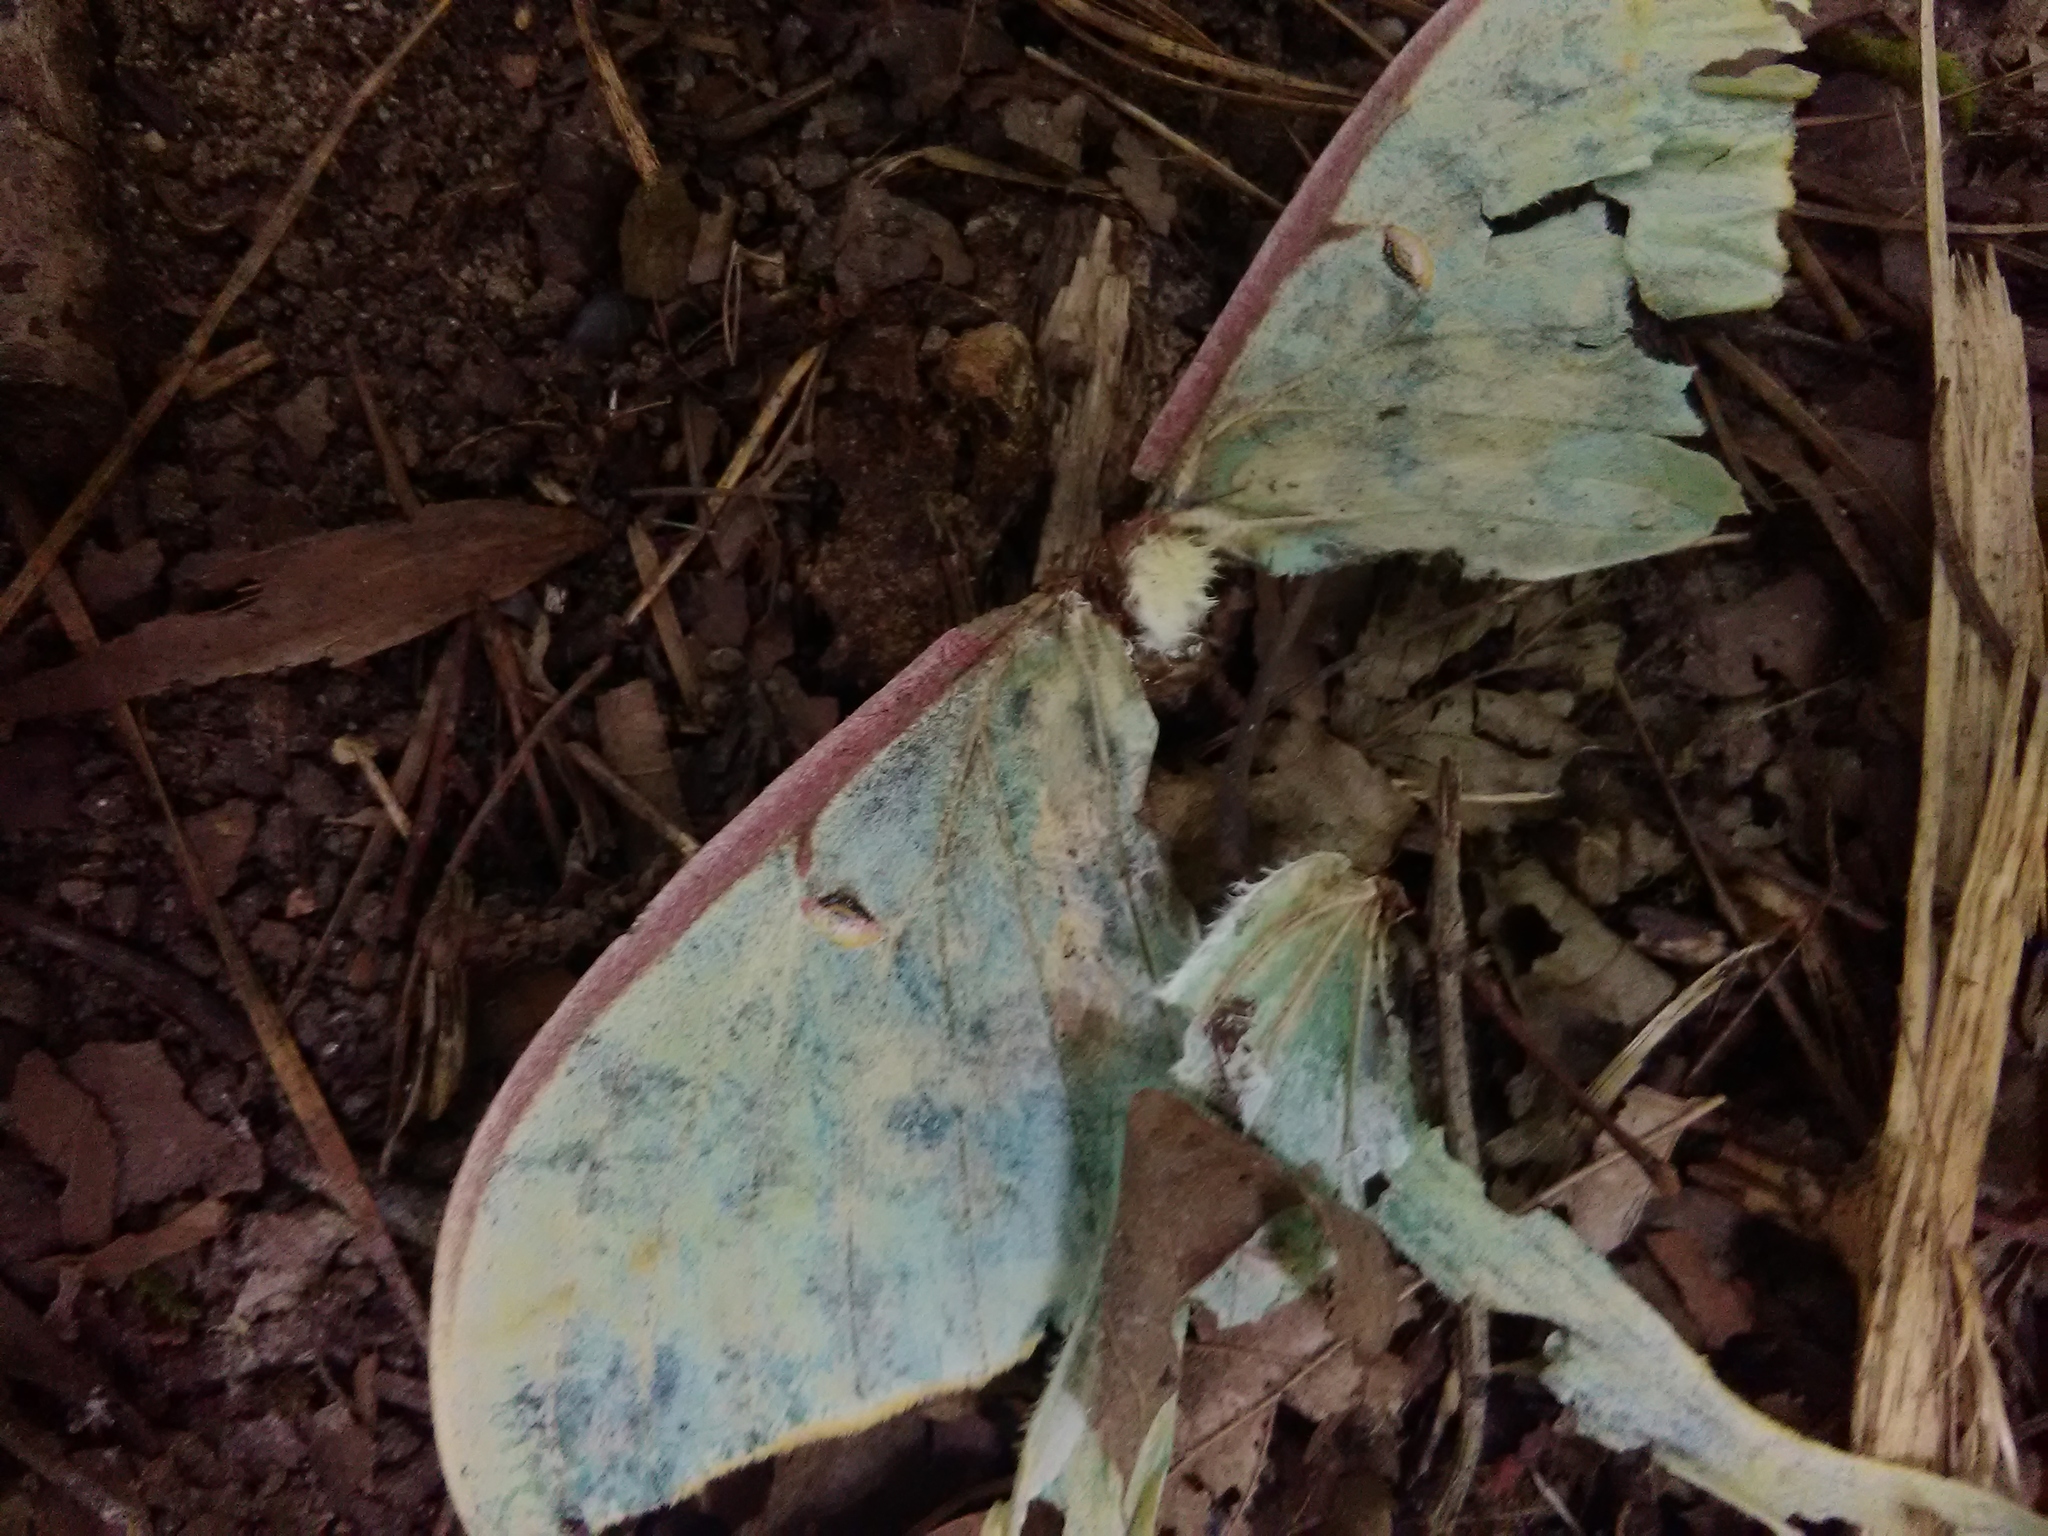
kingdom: Animalia
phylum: Arthropoda
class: Insecta
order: Lepidoptera
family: Saturniidae
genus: Actias
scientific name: Actias luna
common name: Luna moth
